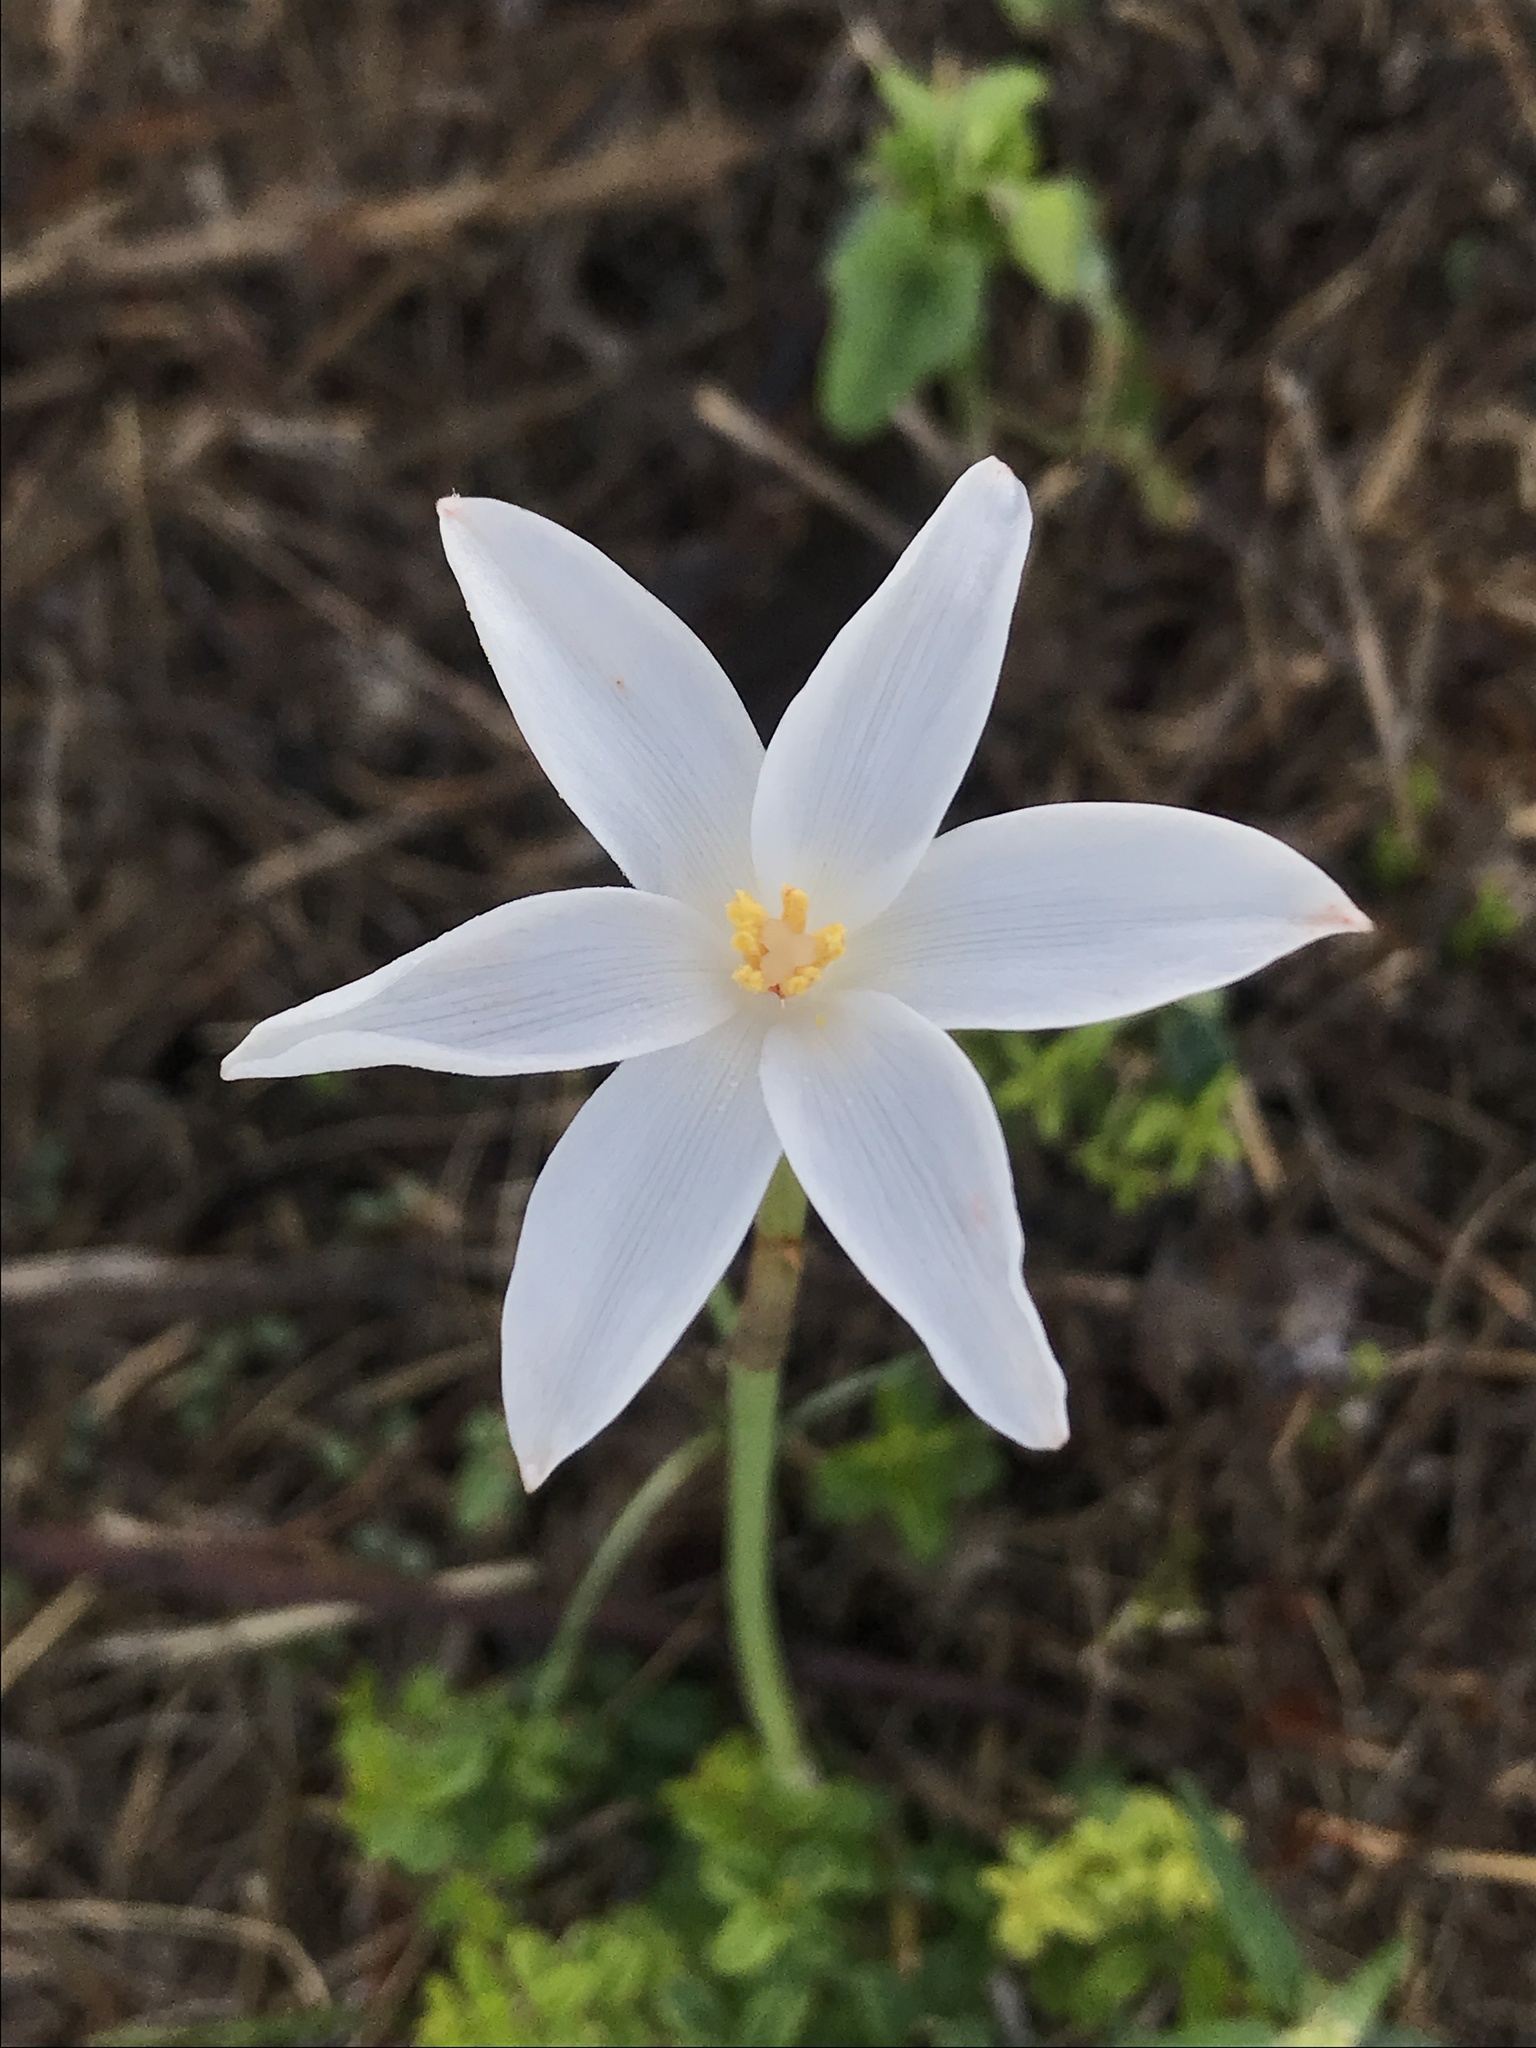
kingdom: Plantae
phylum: Tracheophyta
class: Liliopsida
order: Asparagales
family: Amaryllidaceae
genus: Zephyranthes
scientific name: Zephyranthes chlorosolen
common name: Evening rain-lily
